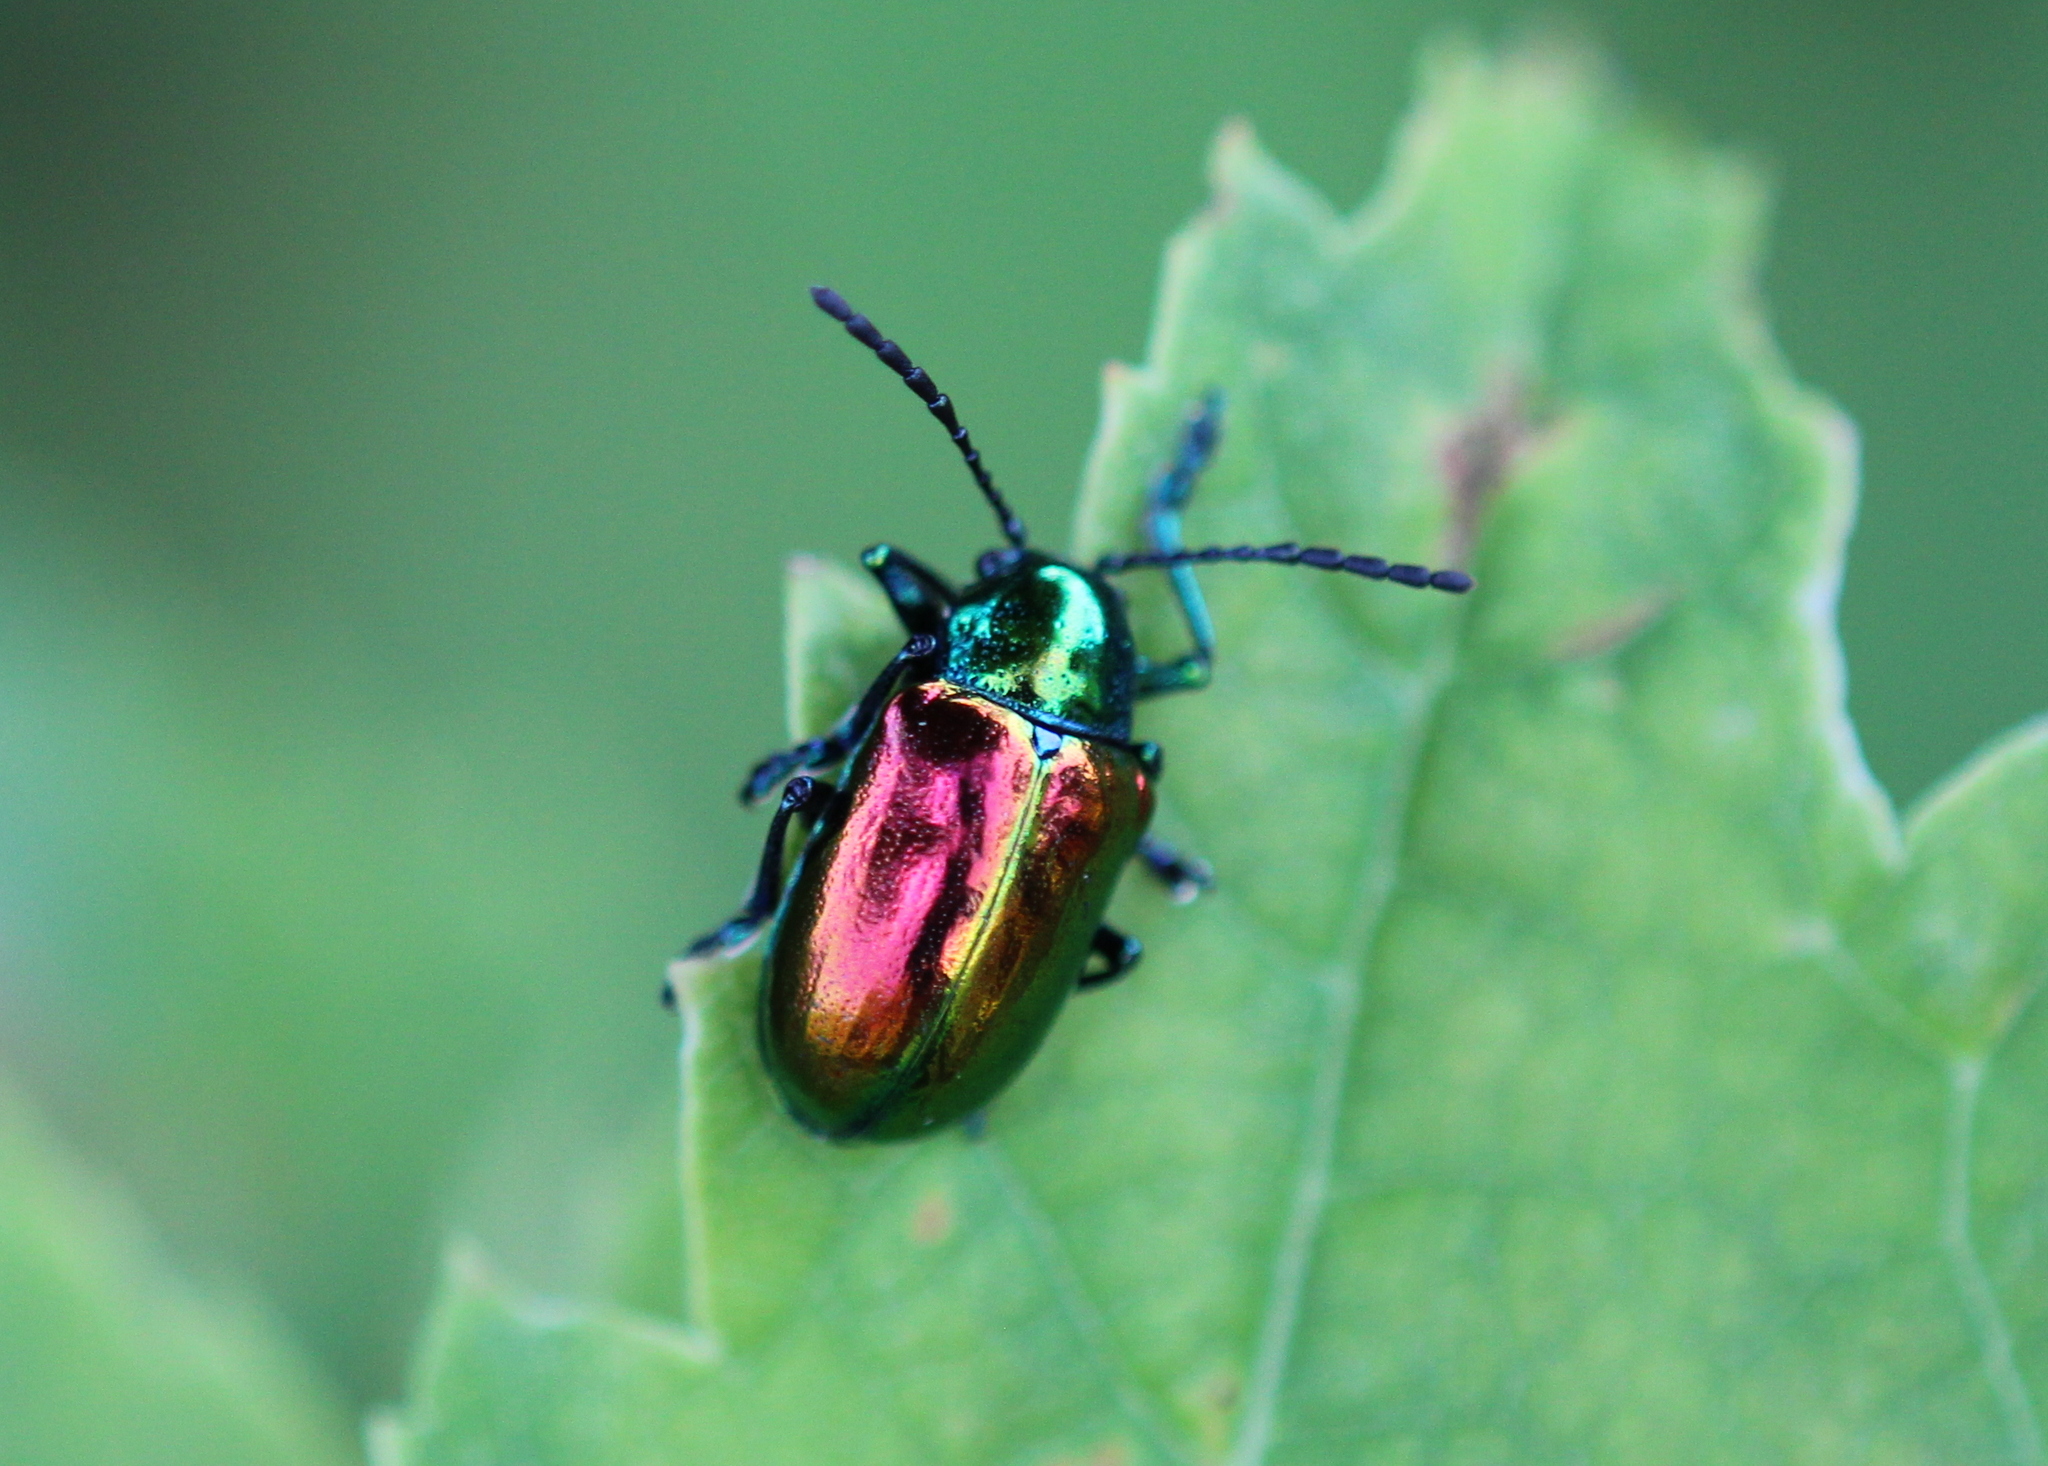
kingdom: Animalia
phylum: Arthropoda
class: Insecta
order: Coleoptera
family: Chrysomelidae
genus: Chrysochus
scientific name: Chrysochus auratus
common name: Dogbane leaf beetle
